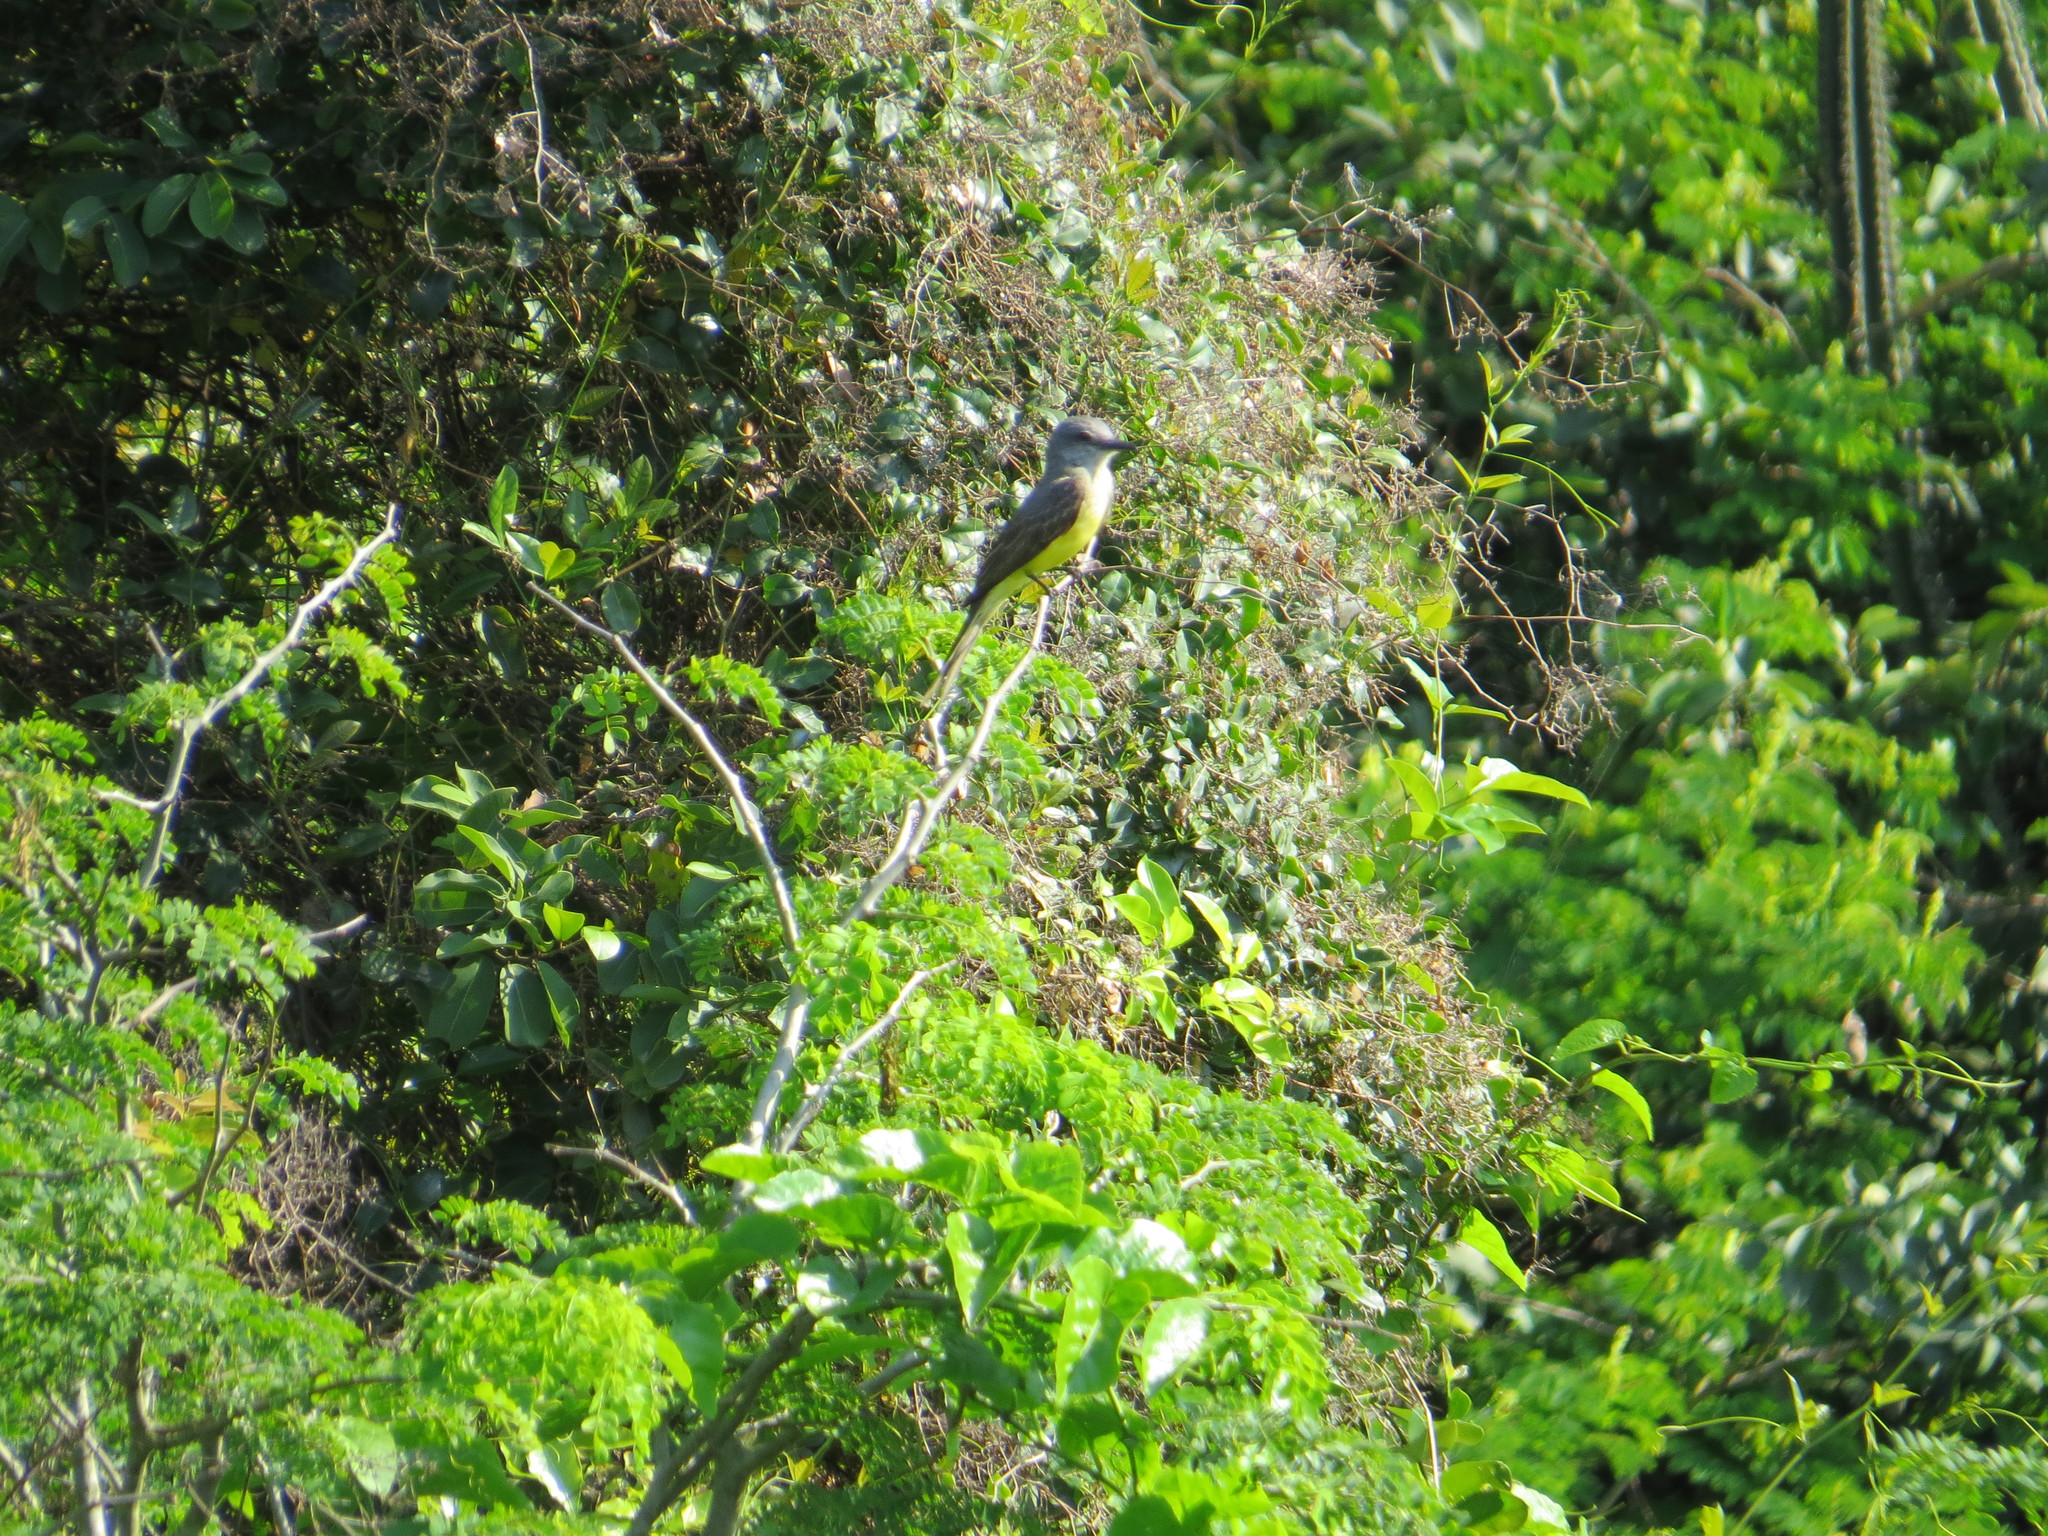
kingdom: Animalia
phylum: Chordata
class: Aves
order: Passeriformes
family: Tyrannidae
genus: Tyrannus
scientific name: Tyrannus melancholicus
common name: Tropical kingbird
